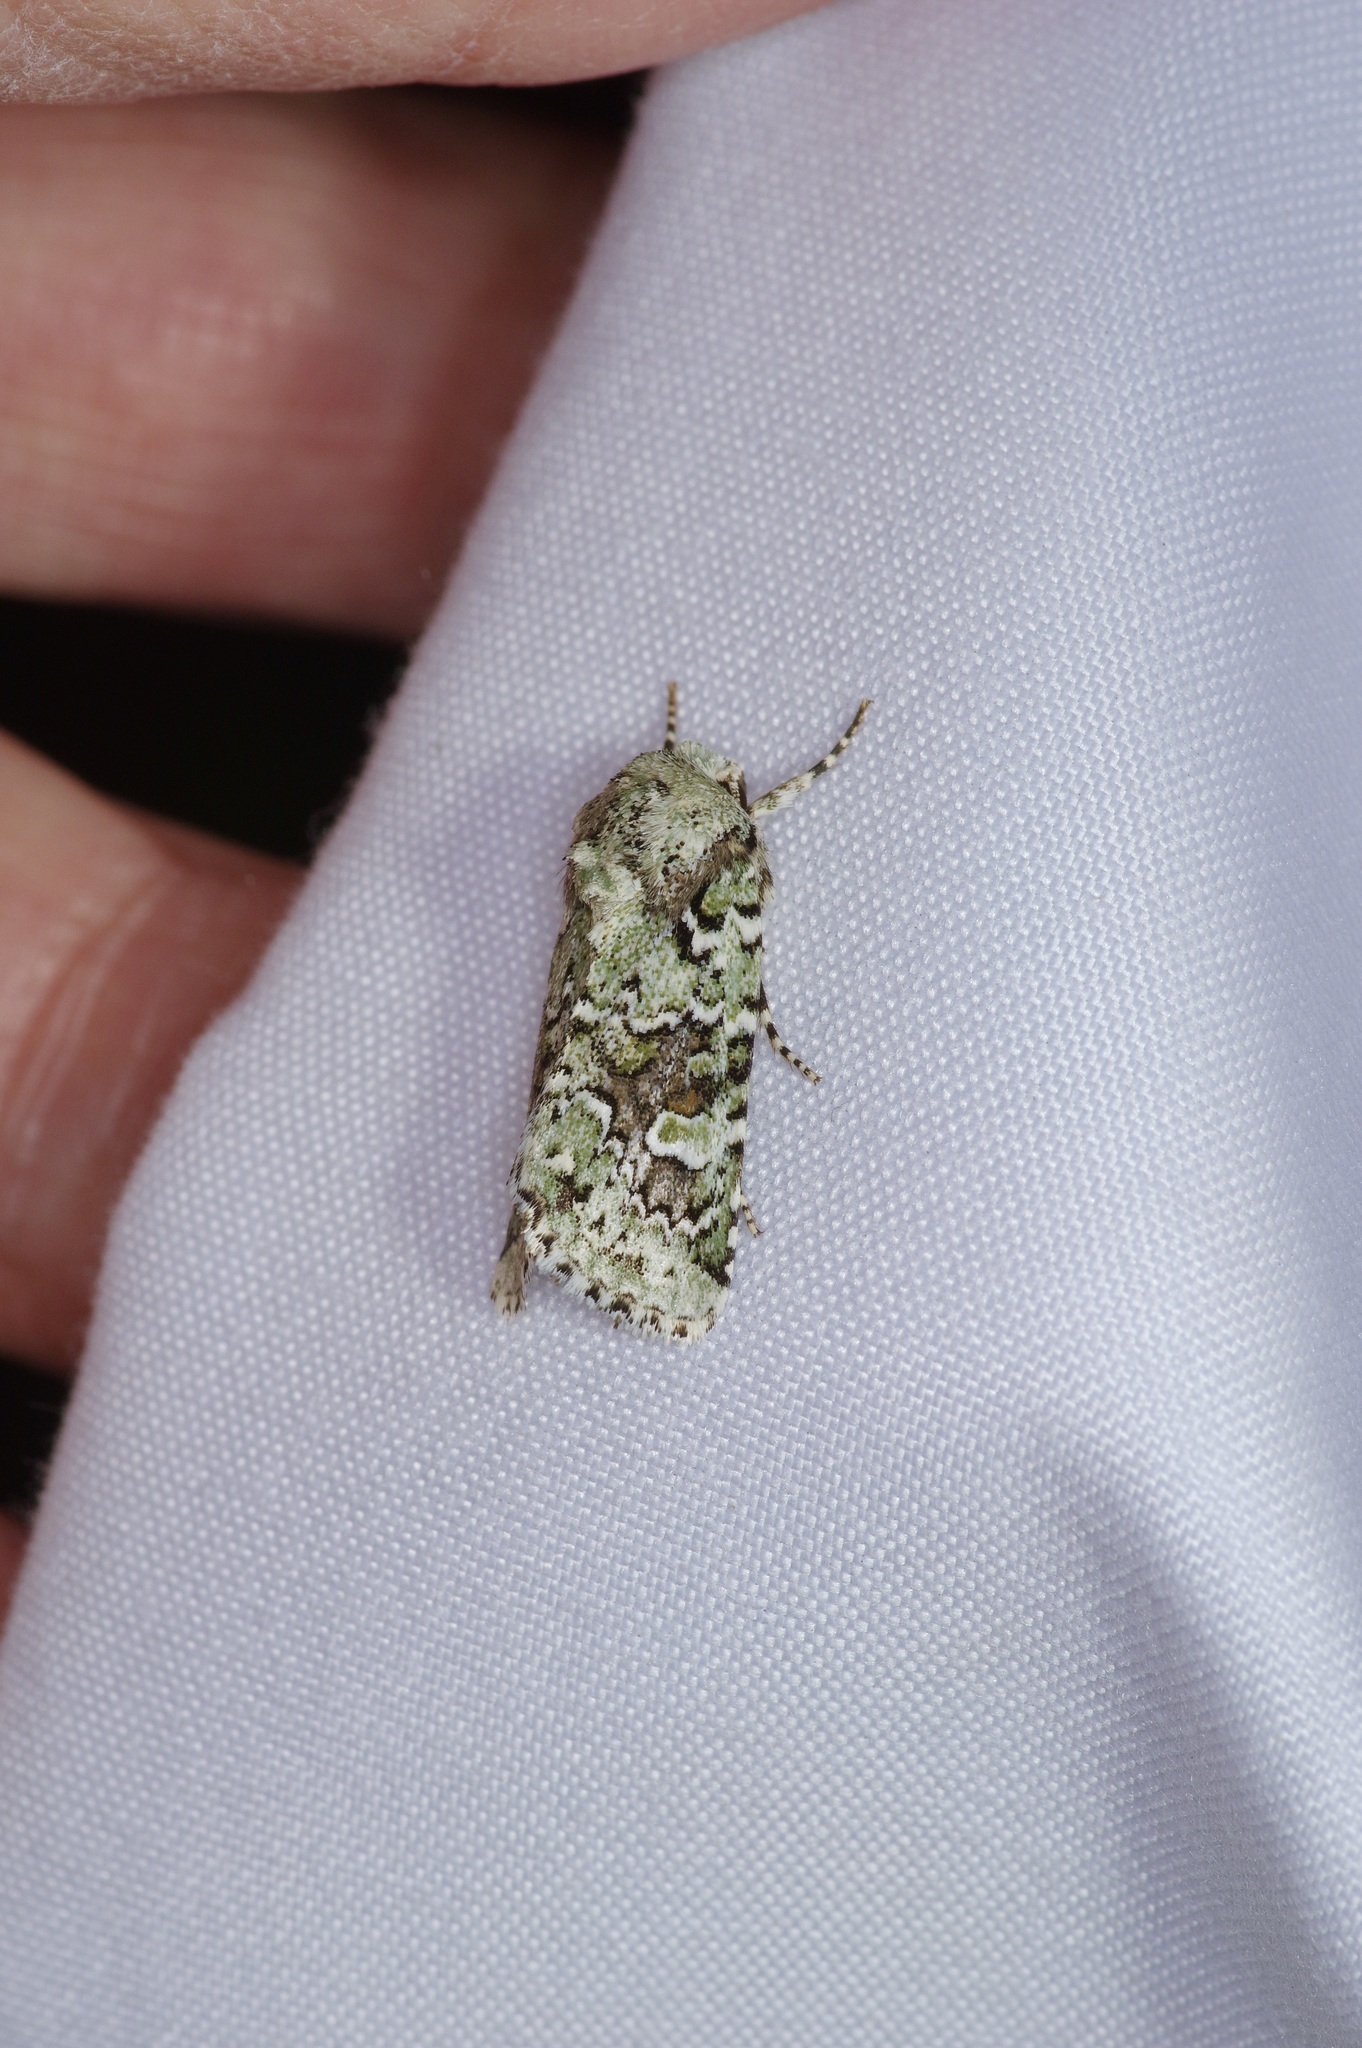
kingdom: Animalia
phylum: Arthropoda
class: Insecta
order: Lepidoptera
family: Noctuidae
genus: Lacinipolia
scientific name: Lacinipolia laudabilis
